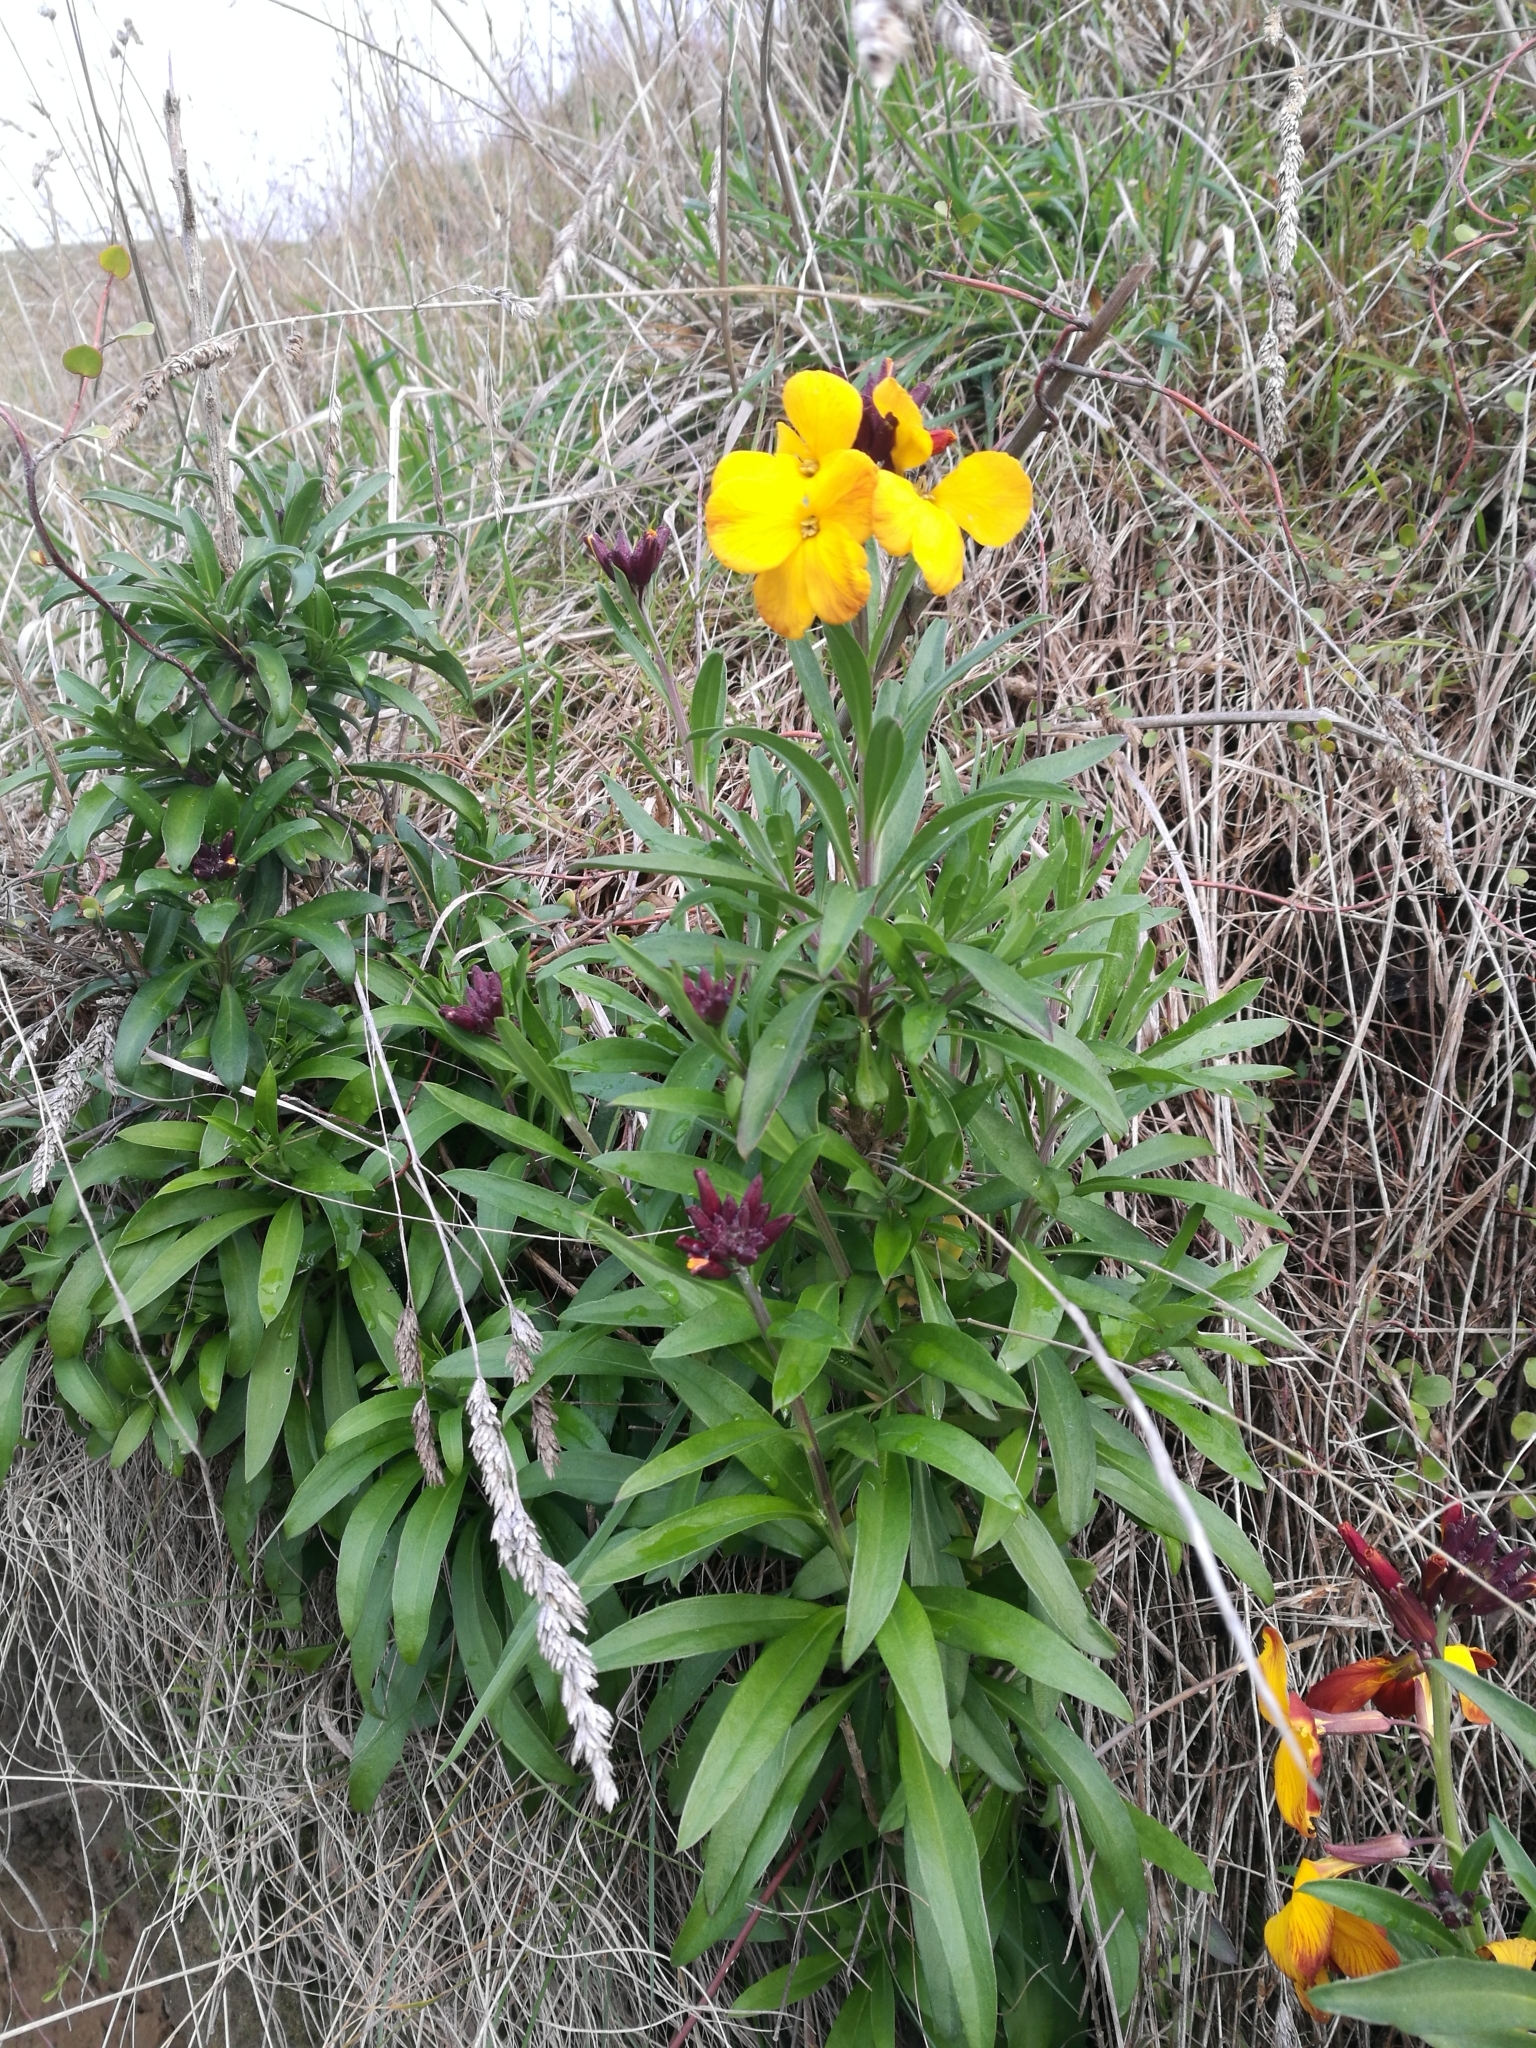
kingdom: Plantae
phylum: Tracheophyta
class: Magnoliopsida
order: Brassicales
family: Brassicaceae
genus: Erysimum
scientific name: Erysimum cheiri
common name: Wallflower
